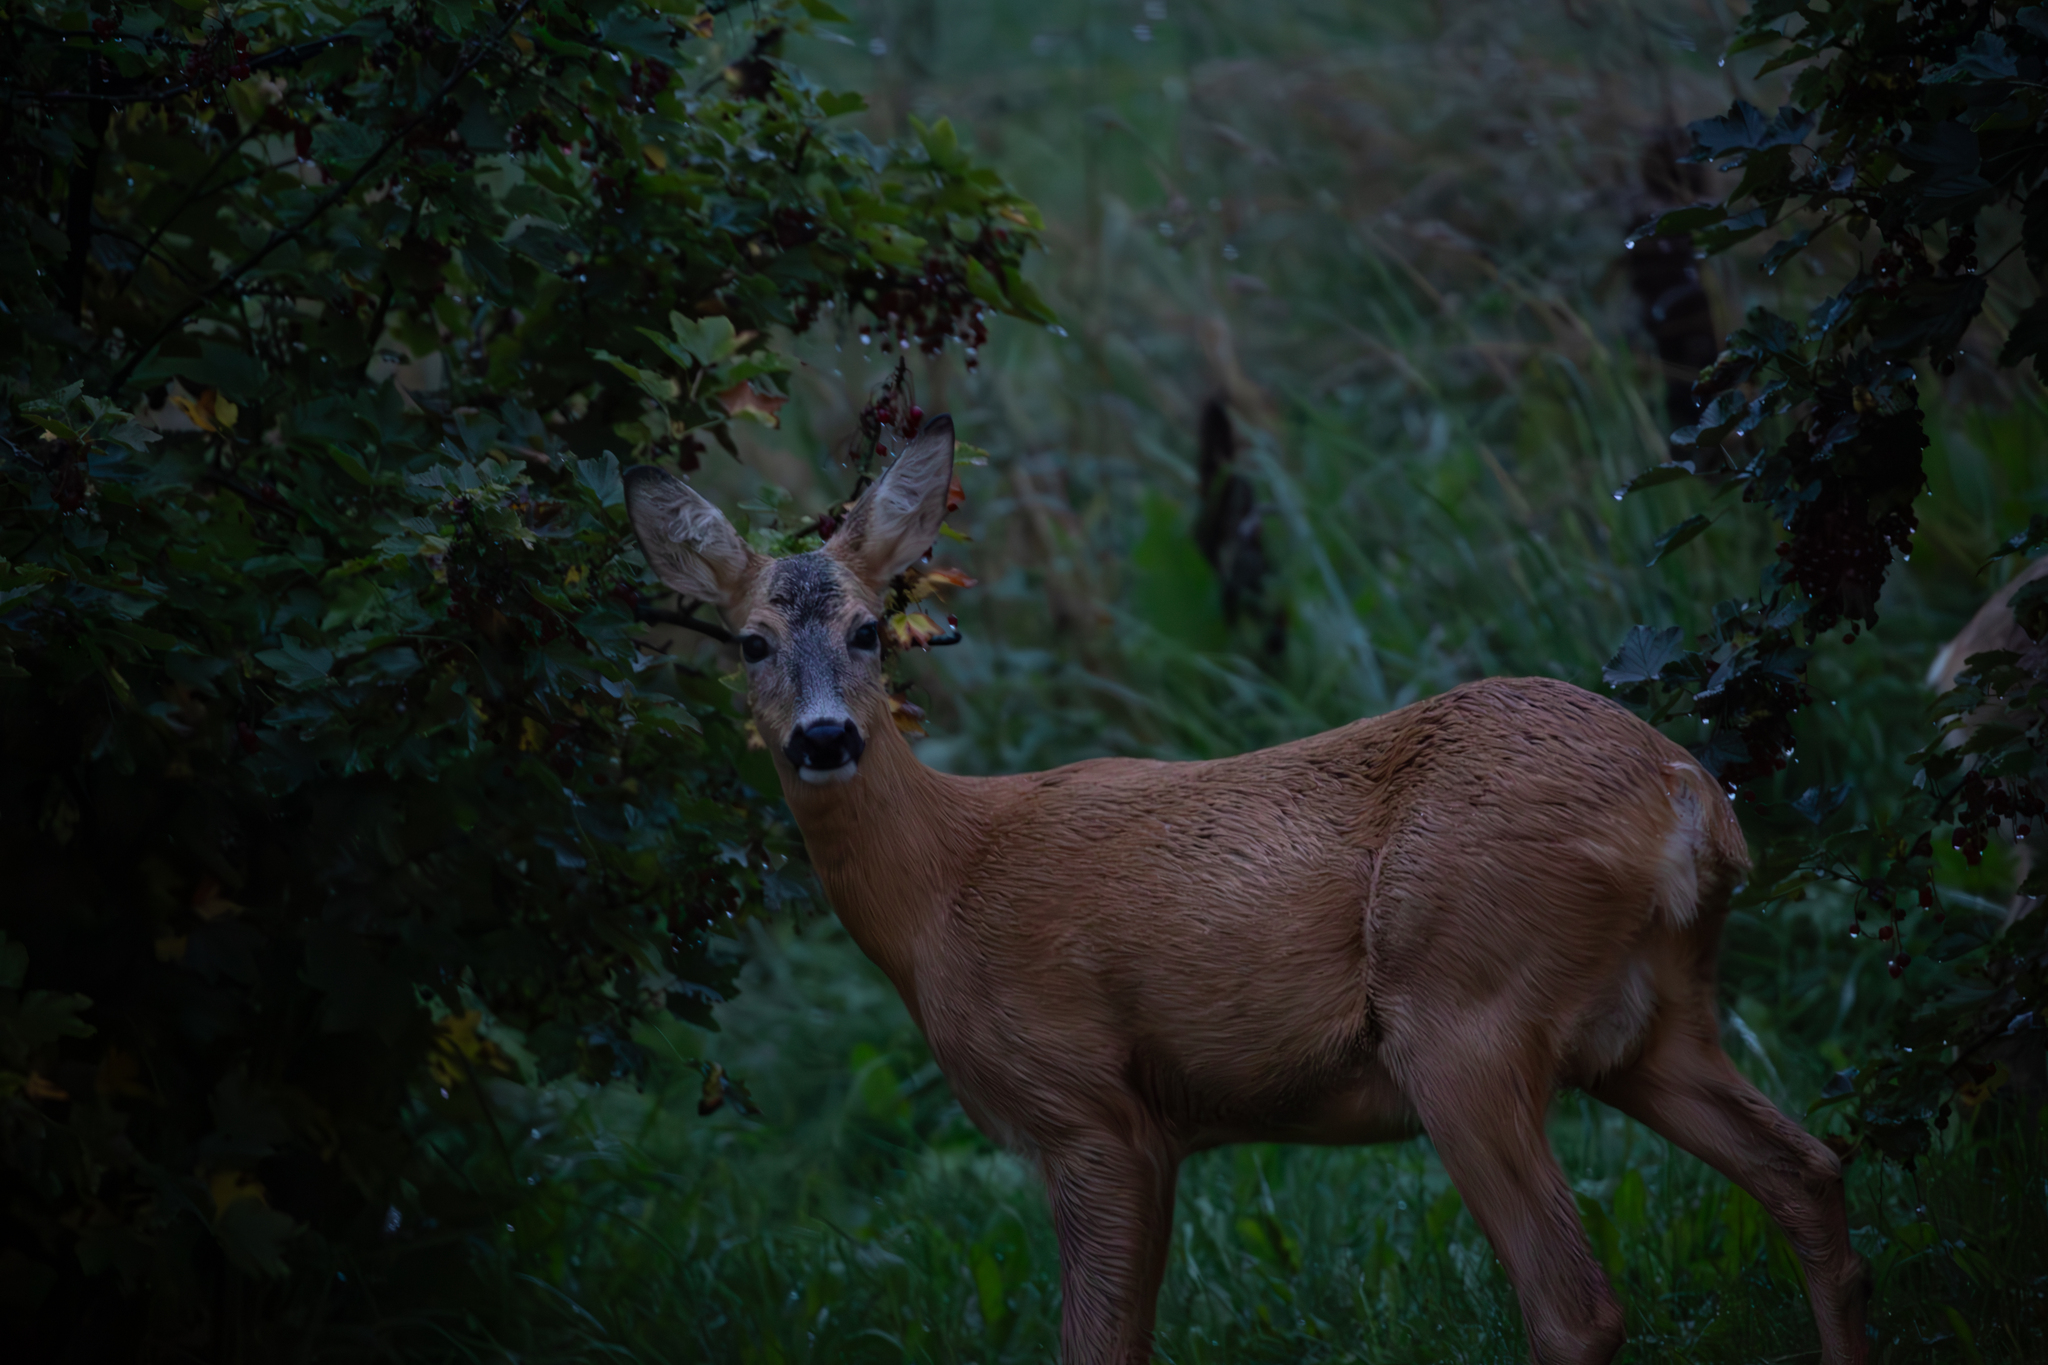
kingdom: Animalia
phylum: Chordata
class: Mammalia
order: Artiodactyla
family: Cervidae
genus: Capreolus
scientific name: Capreolus capreolus
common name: Western roe deer
